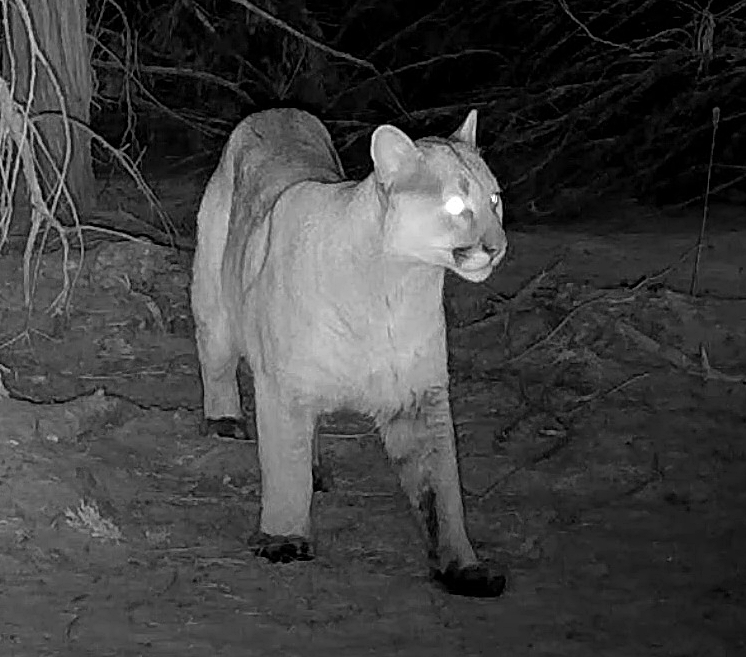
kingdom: Animalia
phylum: Chordata
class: Mammalia
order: Carnivora
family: Felidae
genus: Puma
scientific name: Puma concolor
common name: Puma
